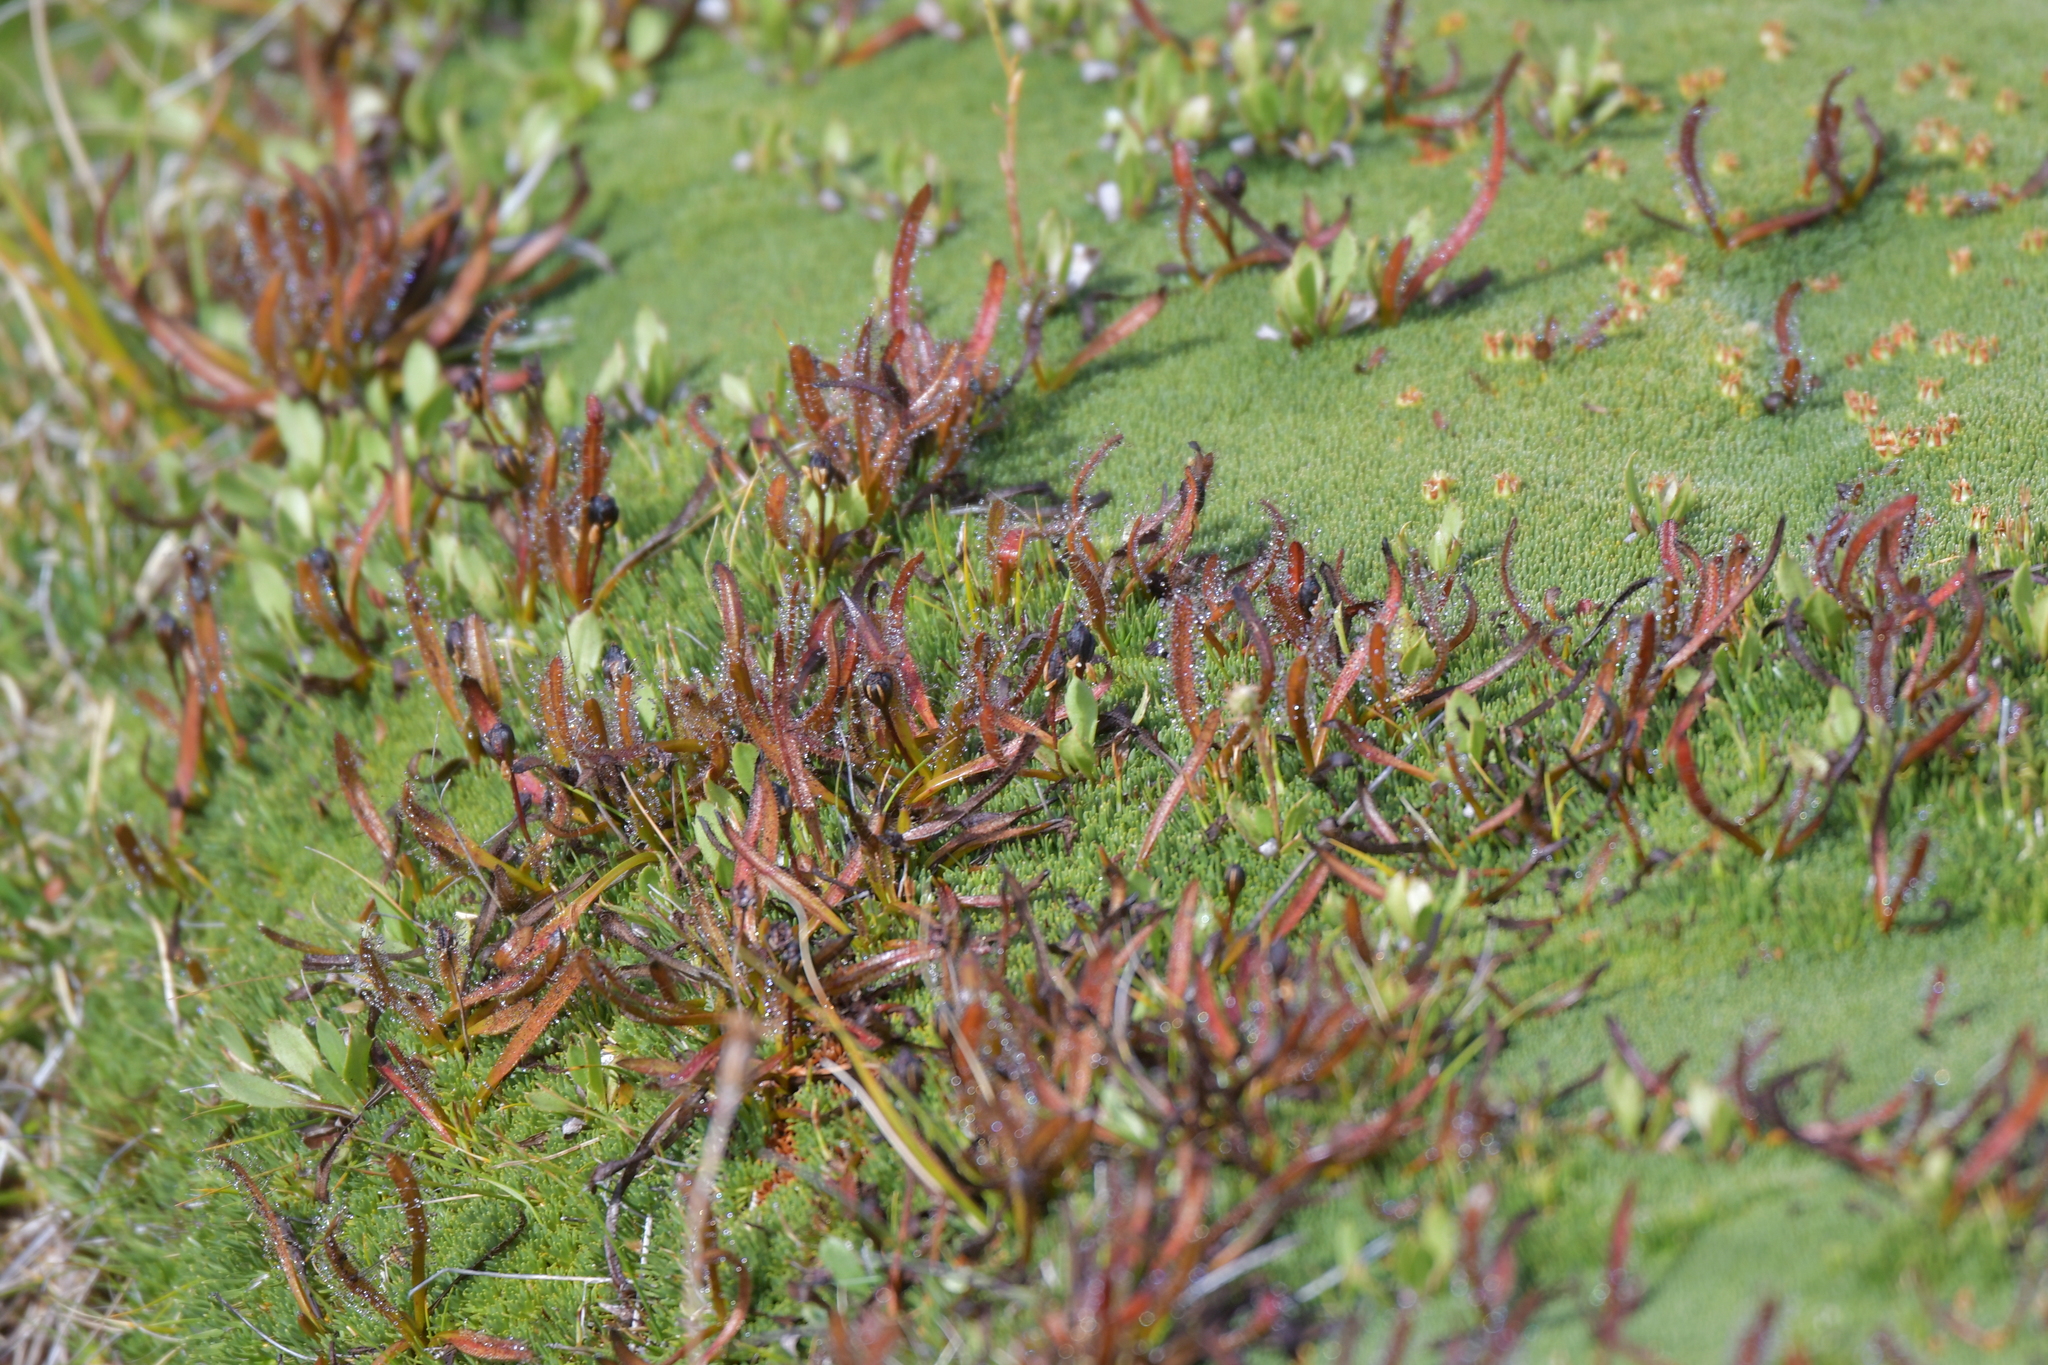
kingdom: Plantae
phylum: Tracheophyta
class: Magnoliopsida
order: Caryophyllales
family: Droseraceae
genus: Drosera
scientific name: Drosera arcturi
